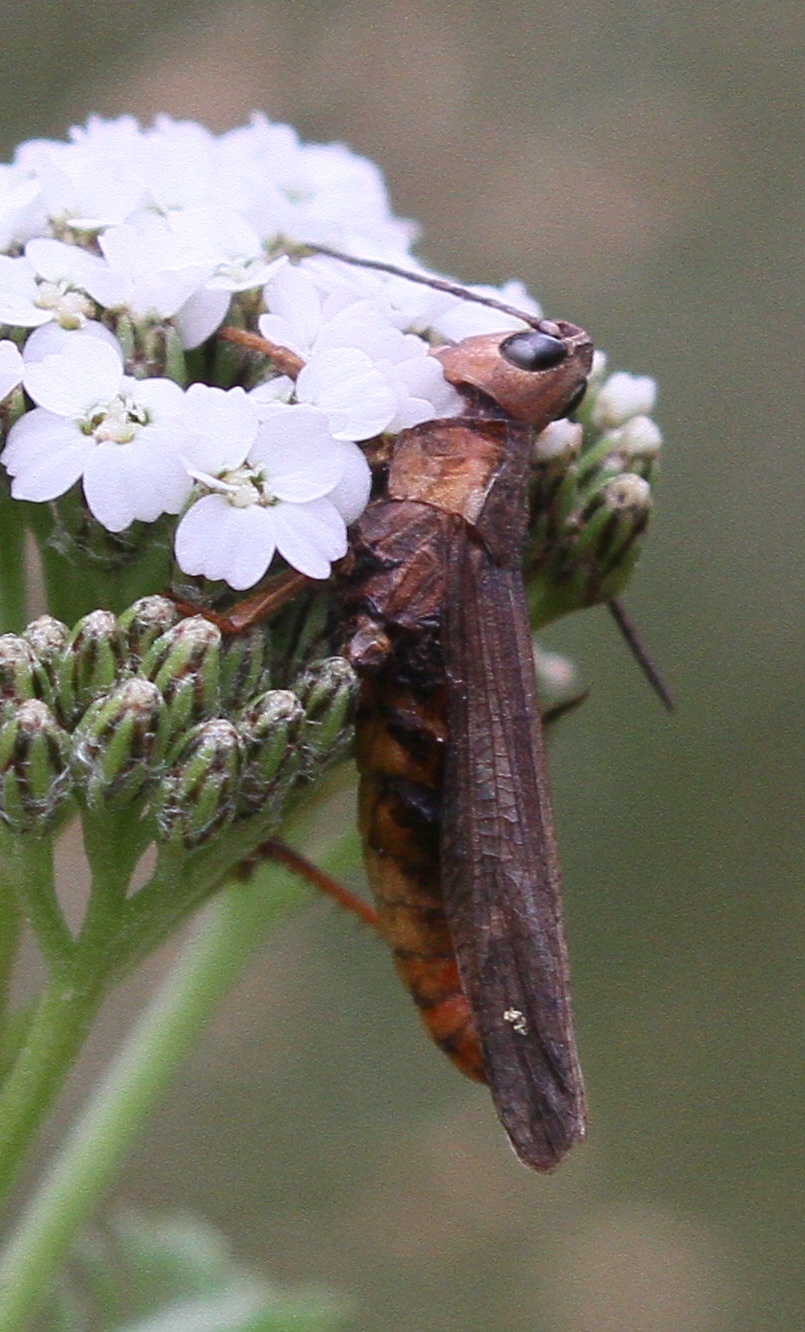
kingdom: Animalia
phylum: Arthropoda
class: Insecta
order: Orthoptera
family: Acrididae
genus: Chorthippus
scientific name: Chorthippus brunneus
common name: Field grasshopper
